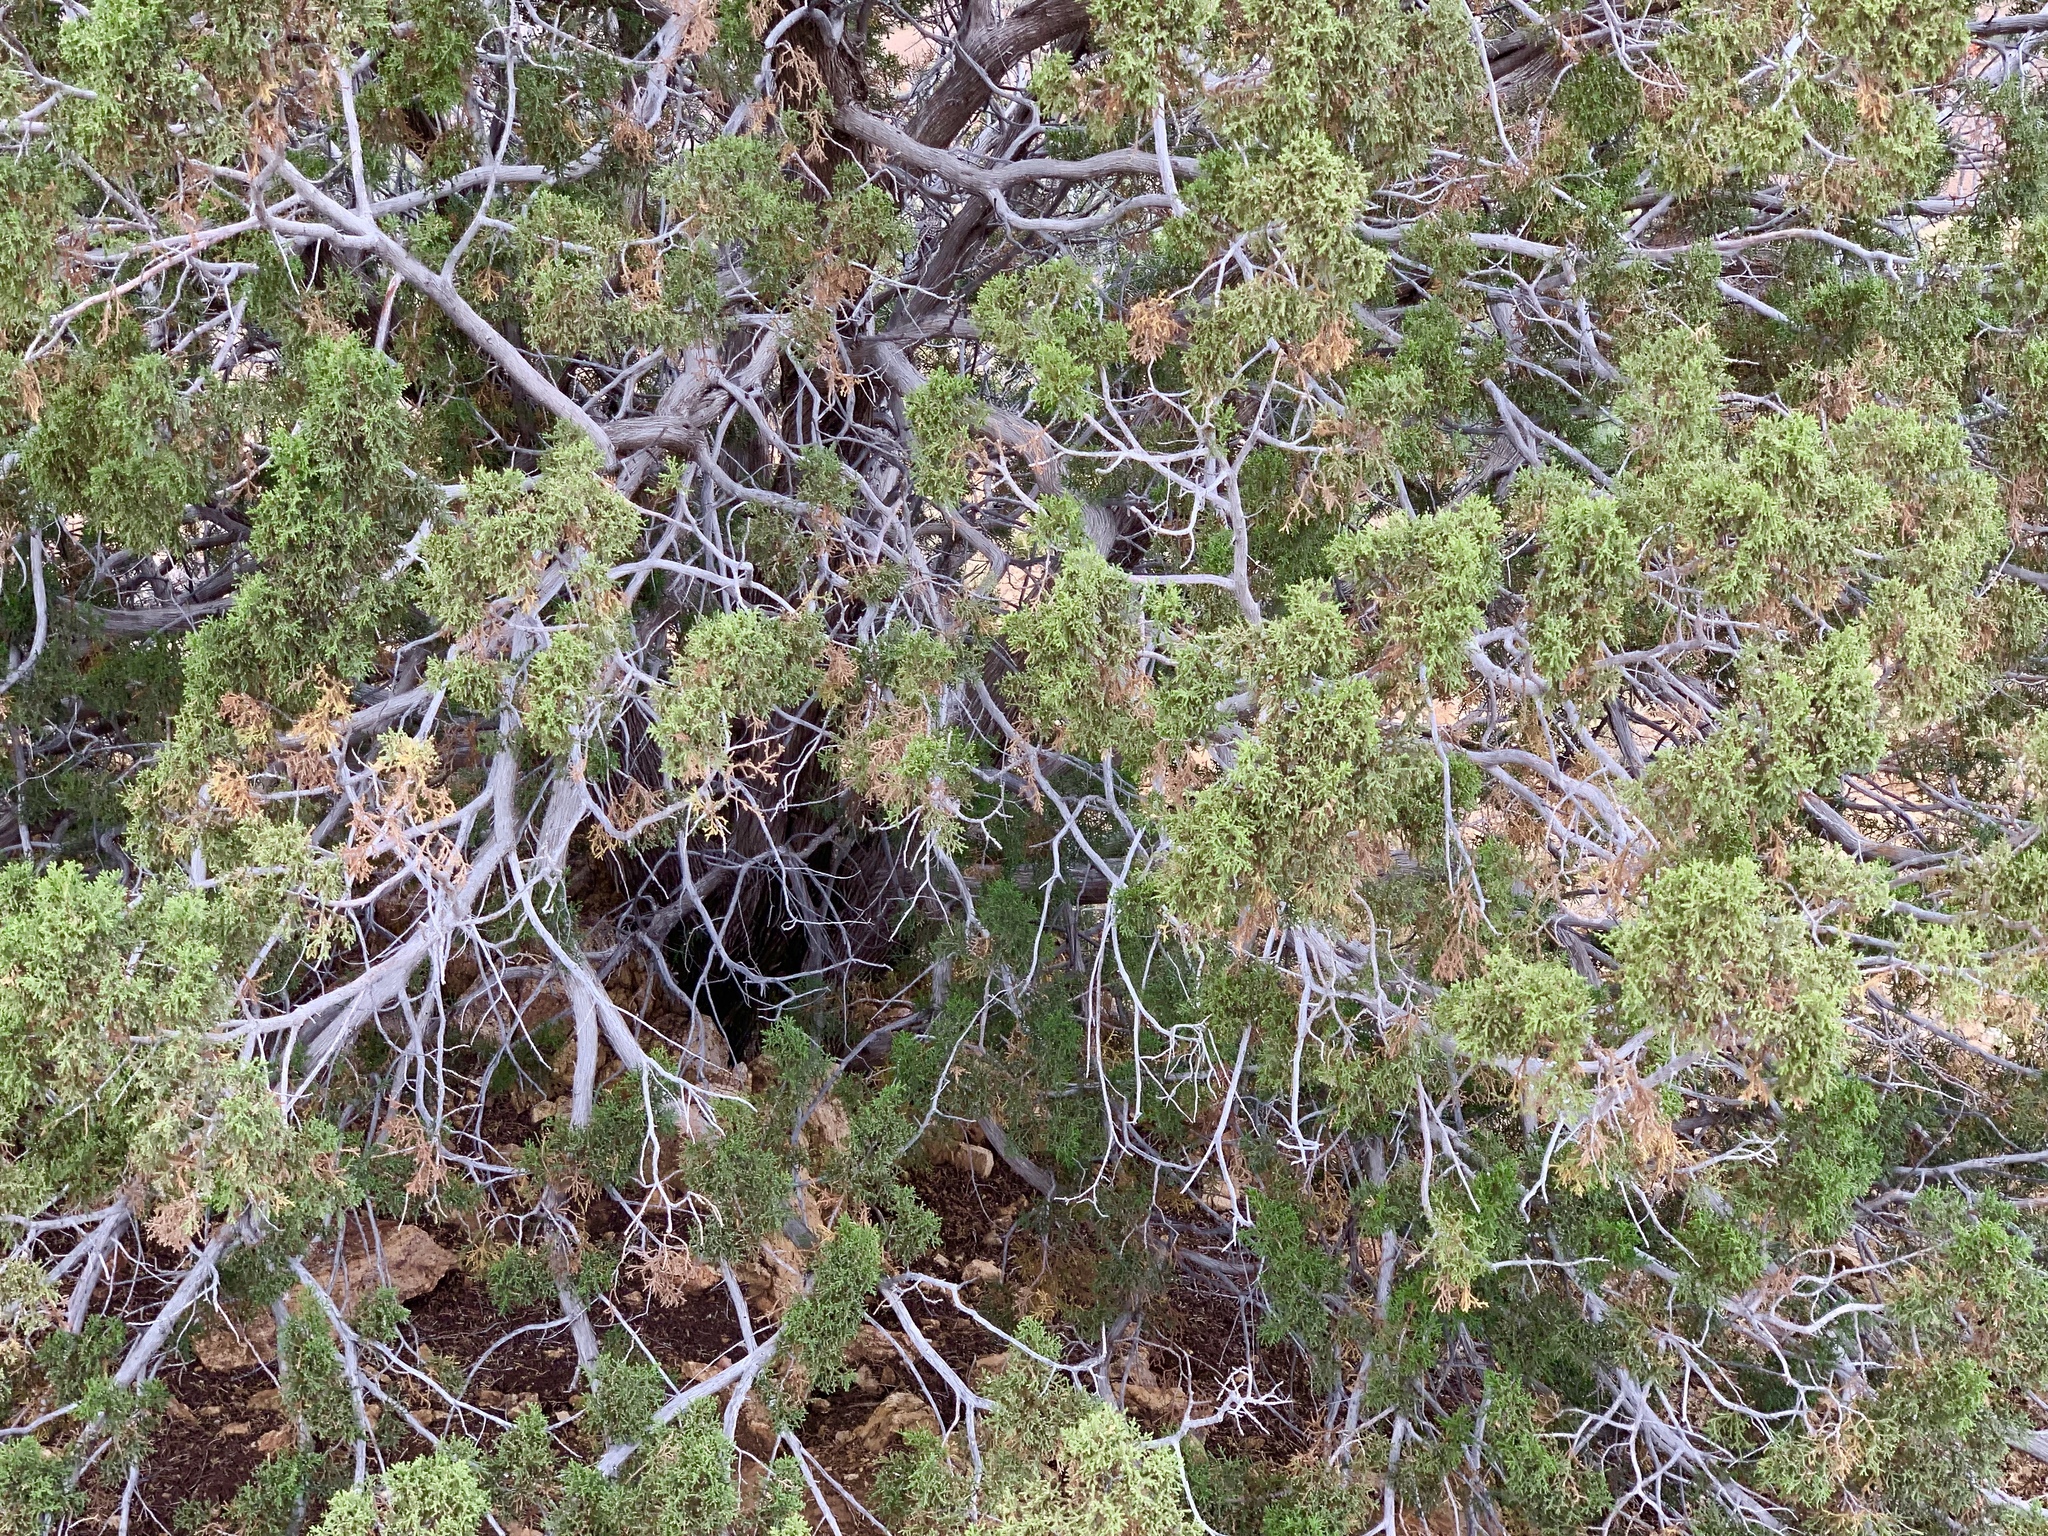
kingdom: Plantae
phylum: Tracheophyta
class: Pinopsida
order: Pinales
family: Cupressaceae
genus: Juniperus
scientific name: Juniperus monosperma
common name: One-seed juniper
